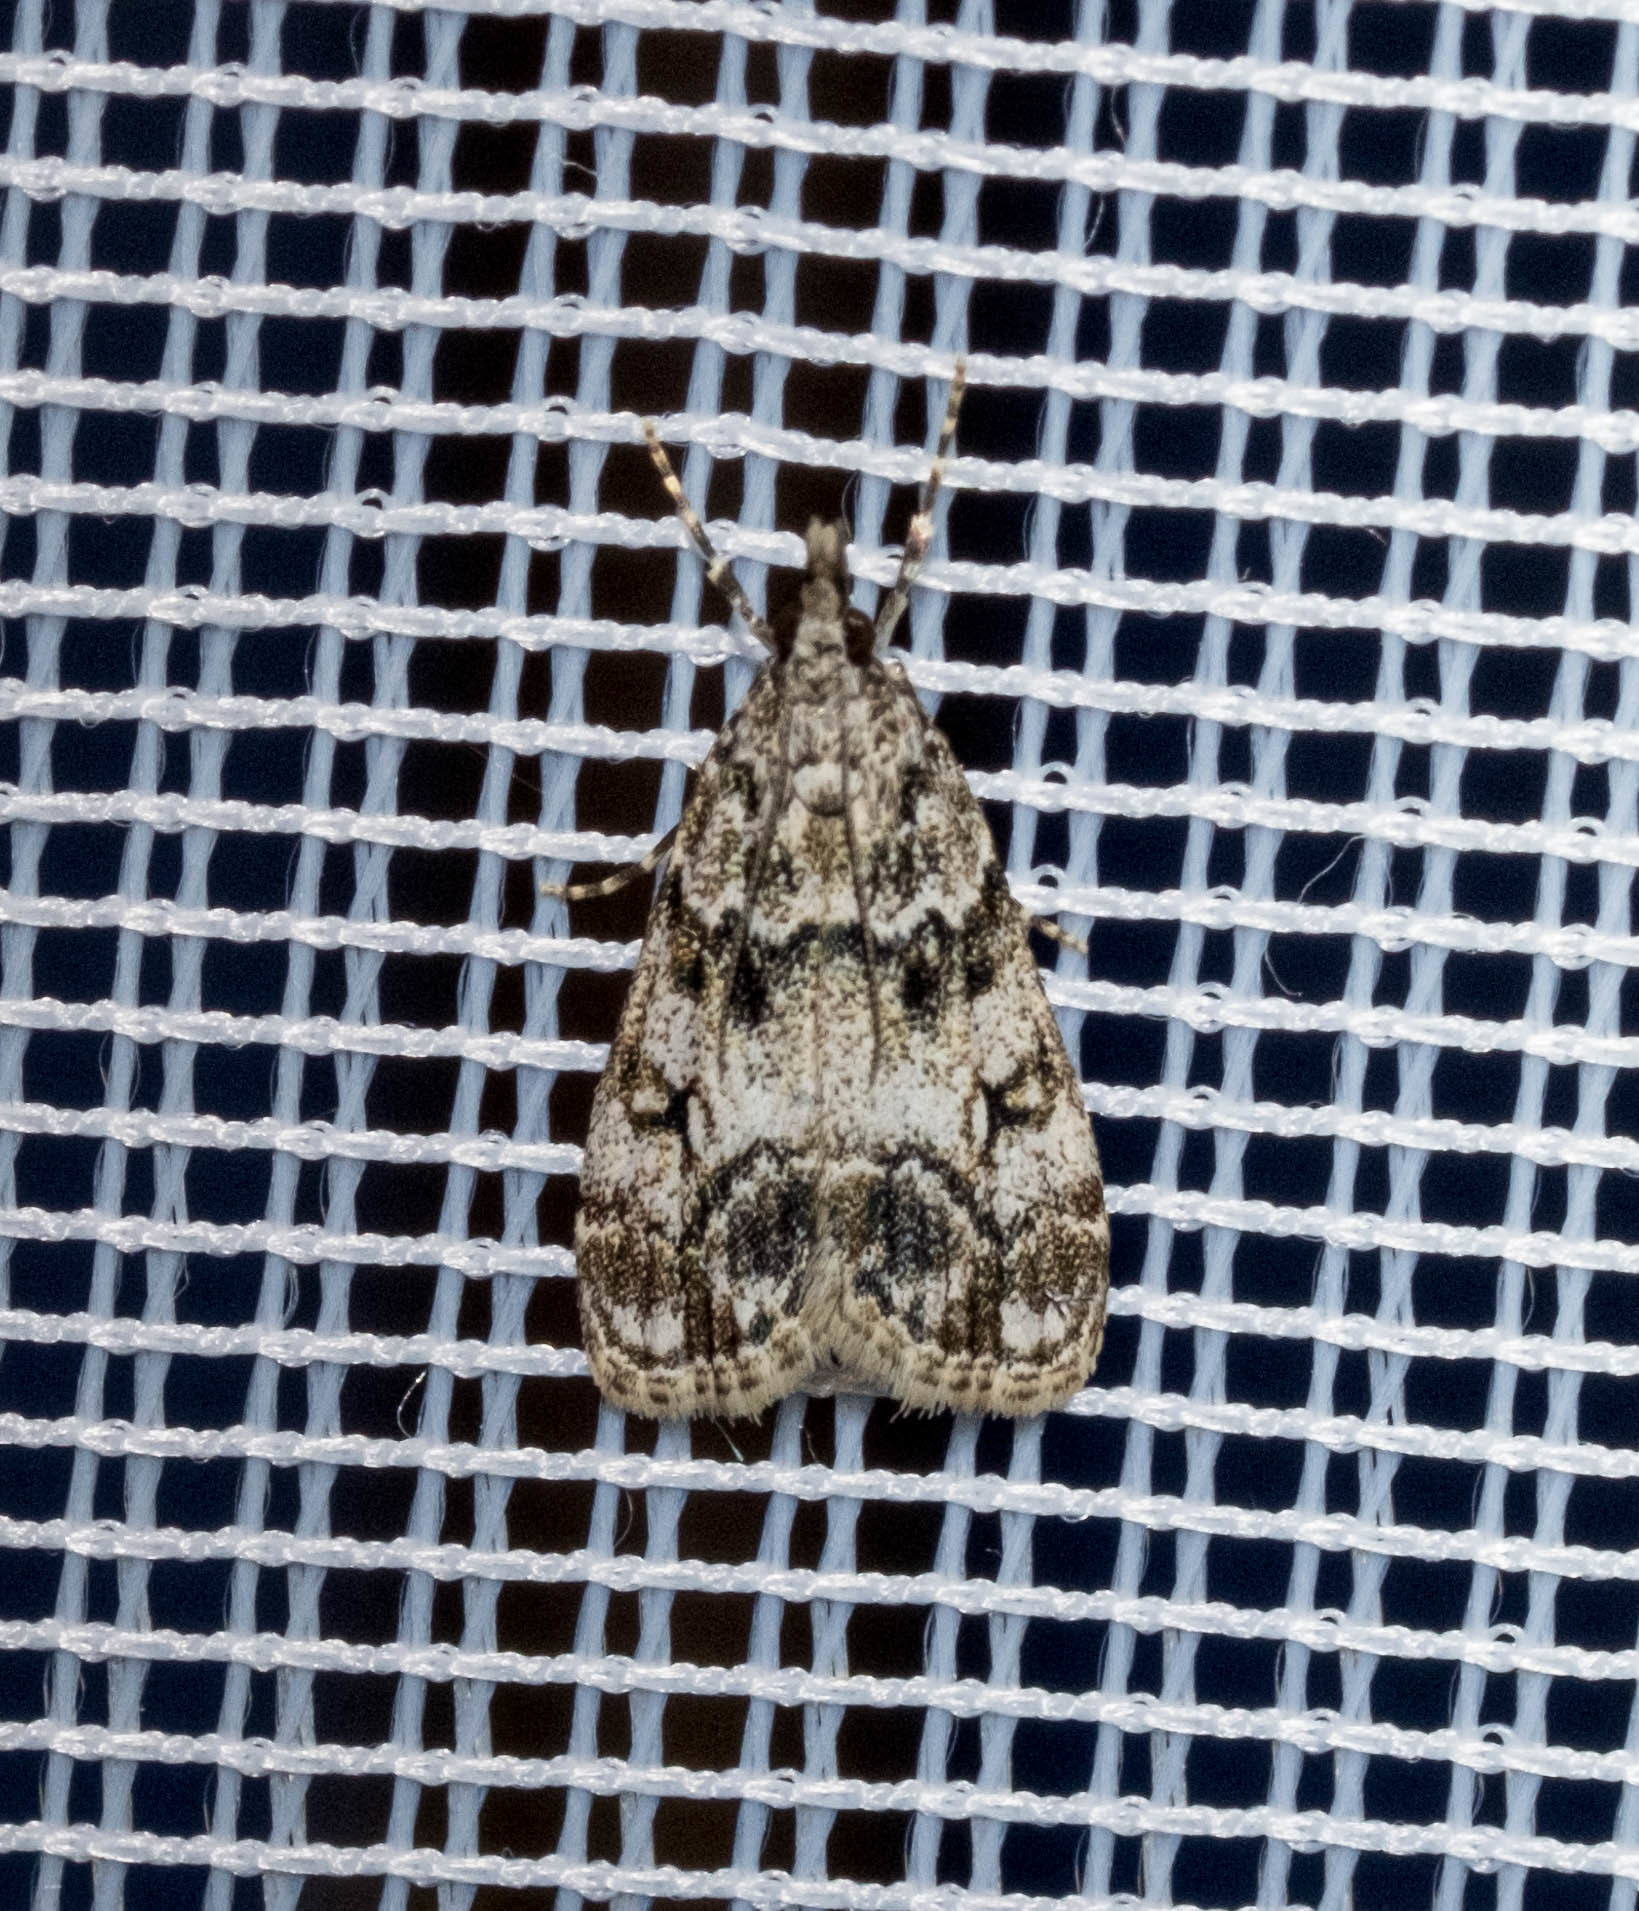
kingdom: Animalia
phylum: Arthropoda
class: Insecta
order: Lepidoptera
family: Crambidae
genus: Eudonia
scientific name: Eudonia lacustrata
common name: Little grey
